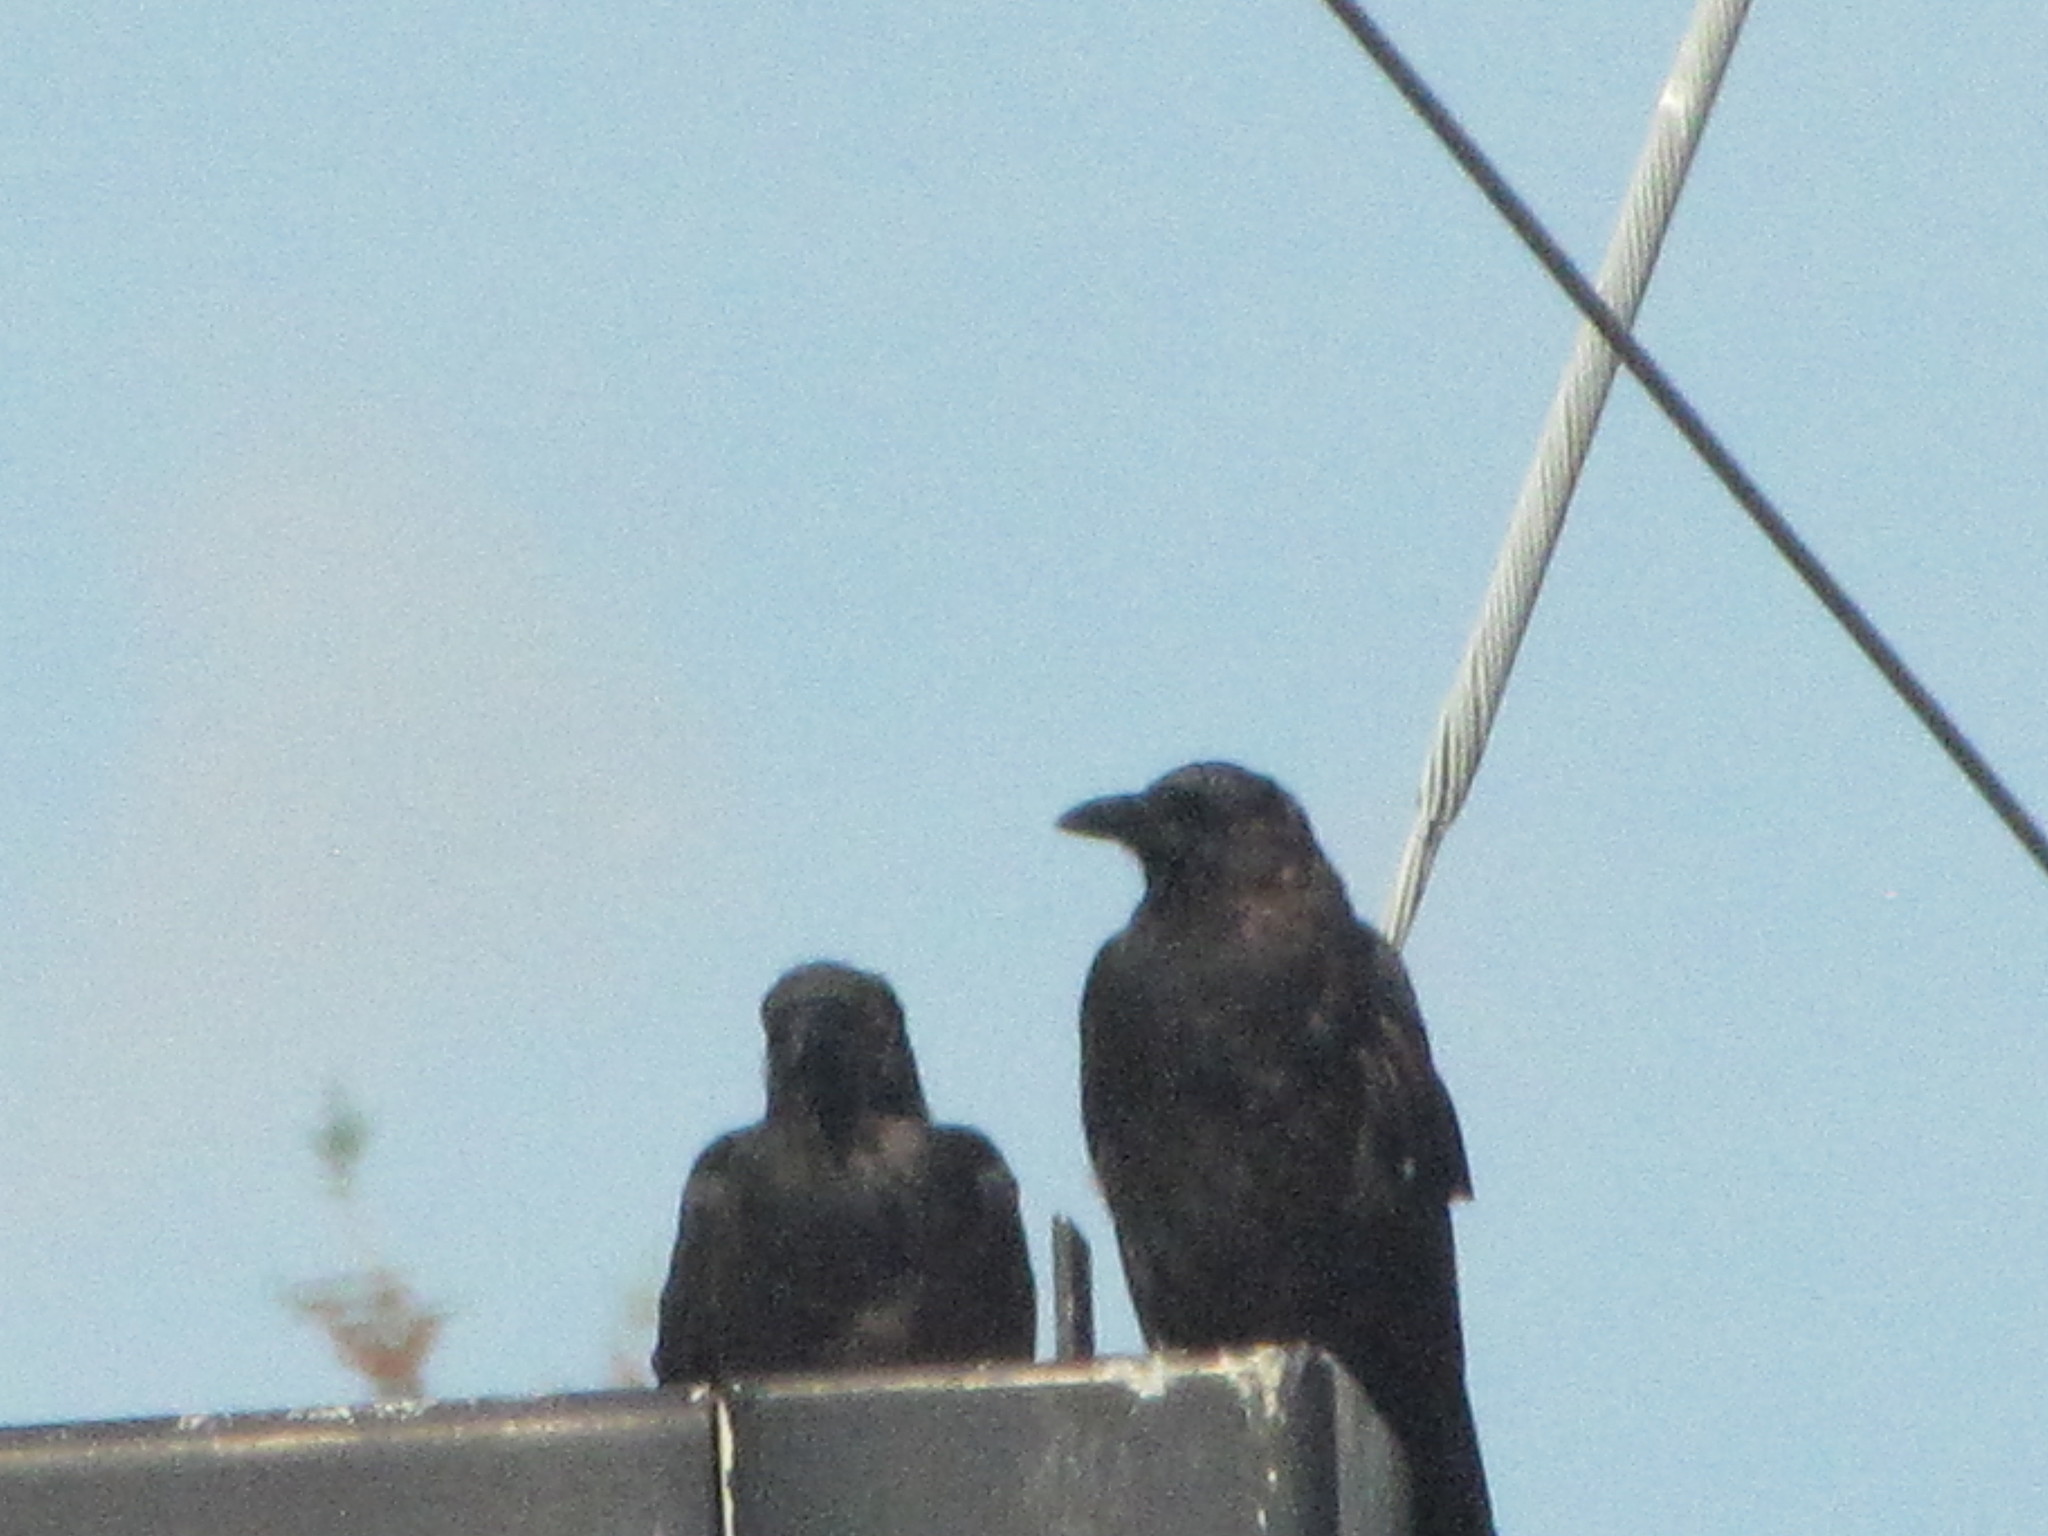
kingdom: Animalia
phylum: Chordata
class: Aves
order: Passeriformes
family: Corvidae
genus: Corvus
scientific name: Corvus brachyrhynchos
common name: American crow
